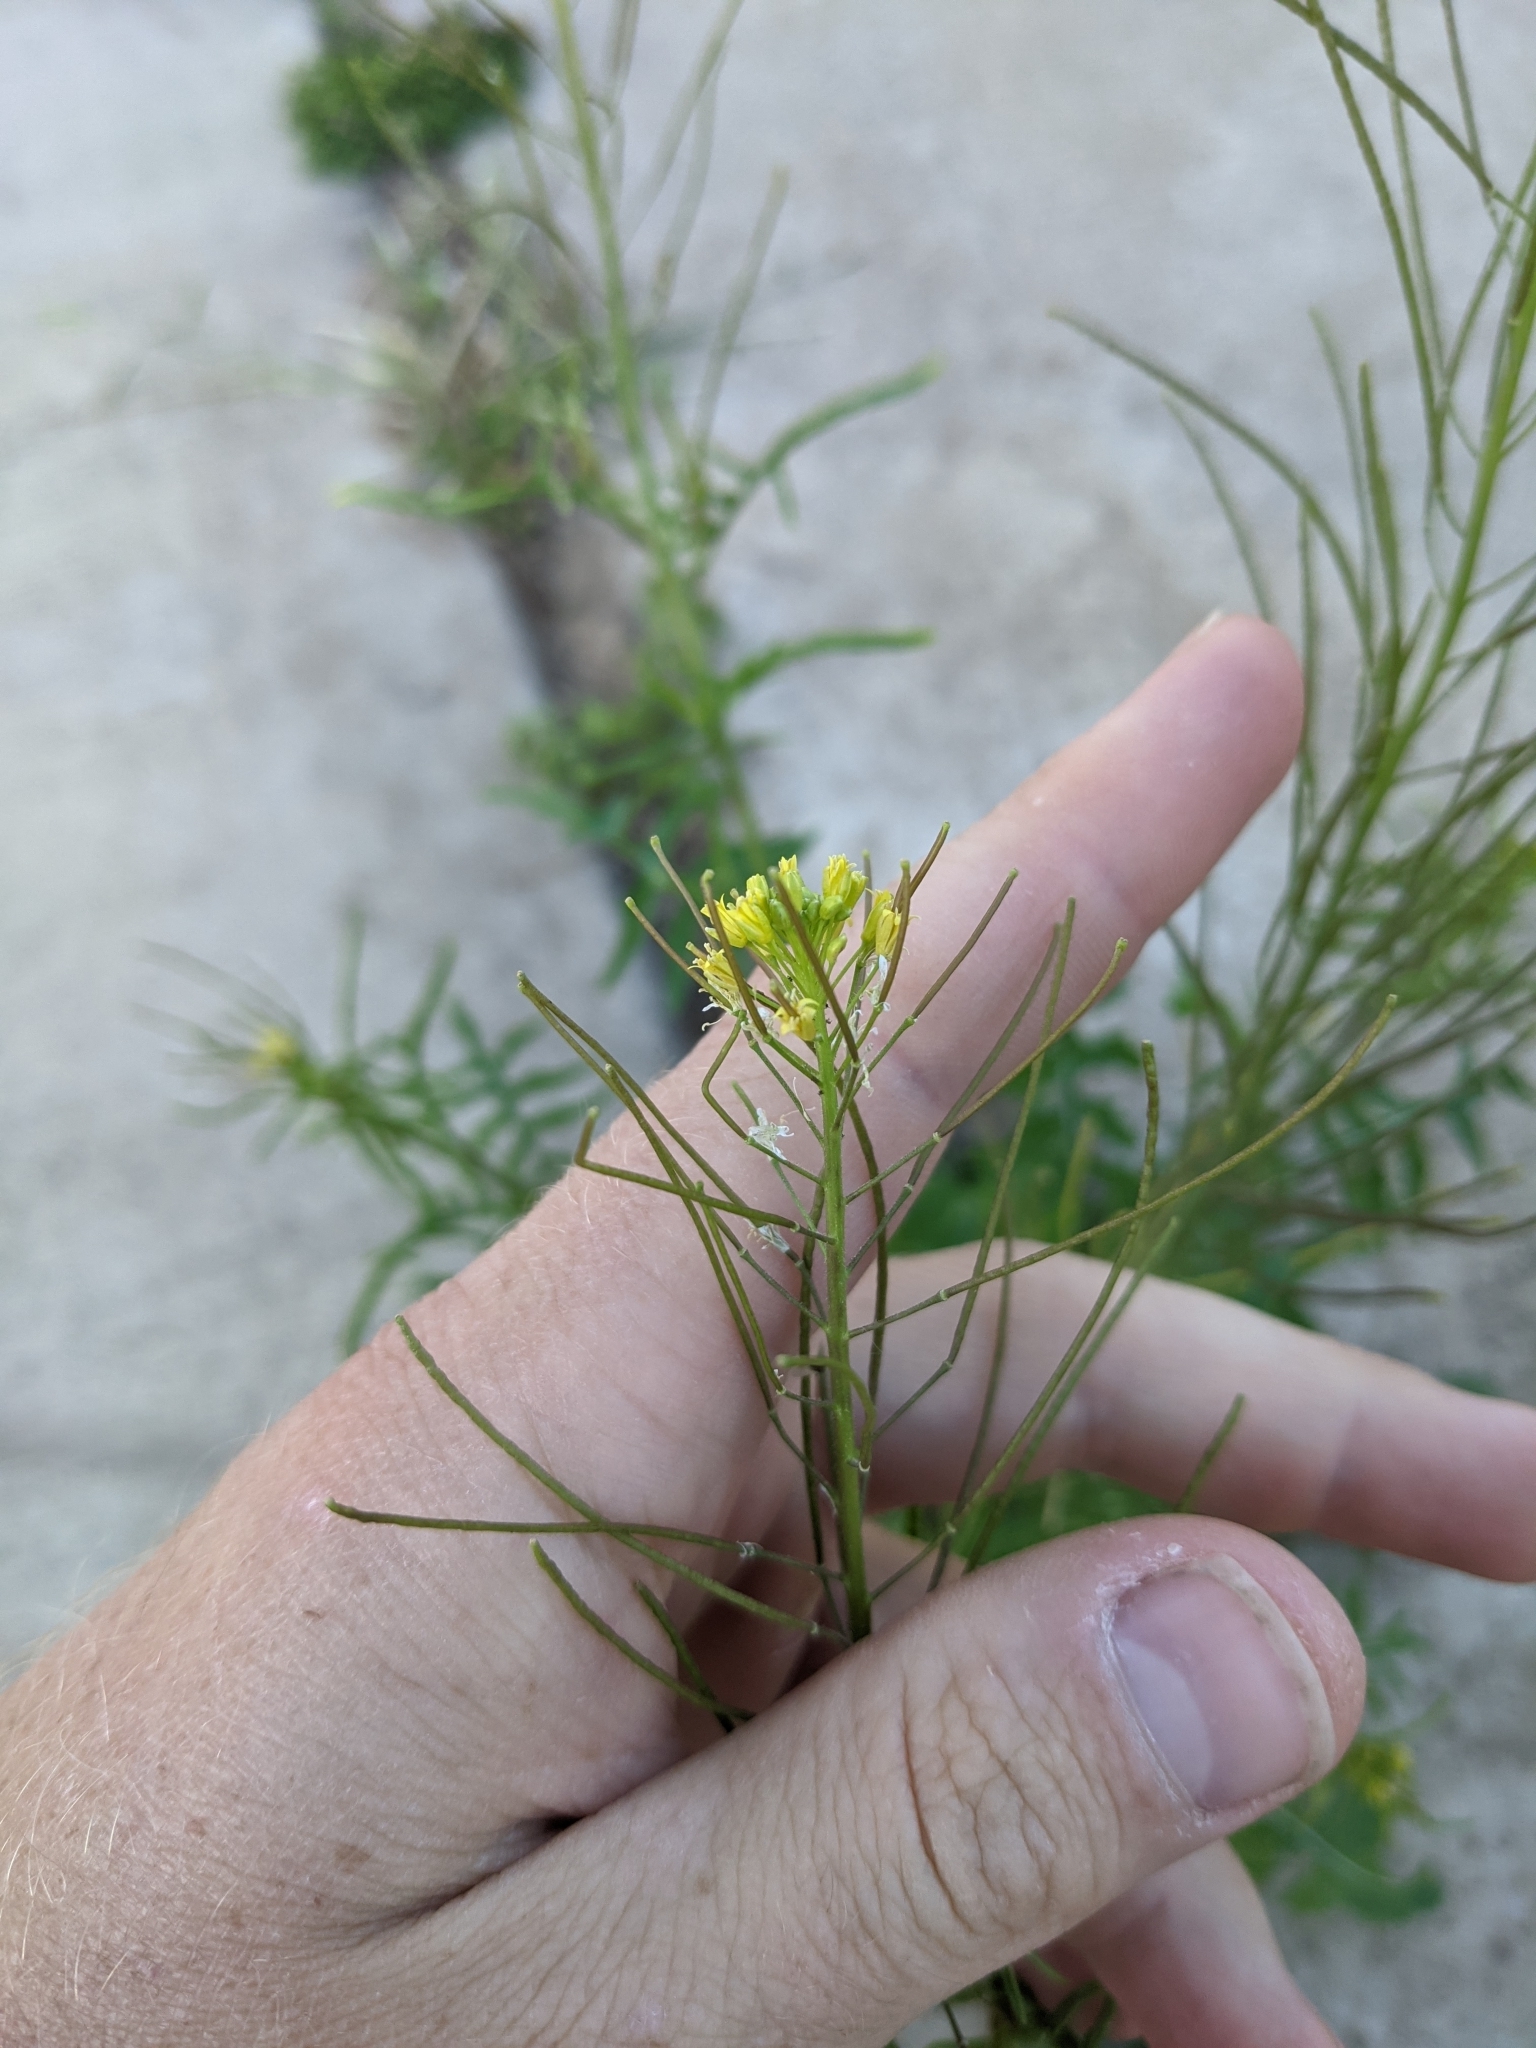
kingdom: Plantae
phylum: Tracheophyta
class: Magnoliopsida
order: Brassicales
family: Brassicaceae
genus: Sisymbrium
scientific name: Sisymbrium irio
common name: London rocket
